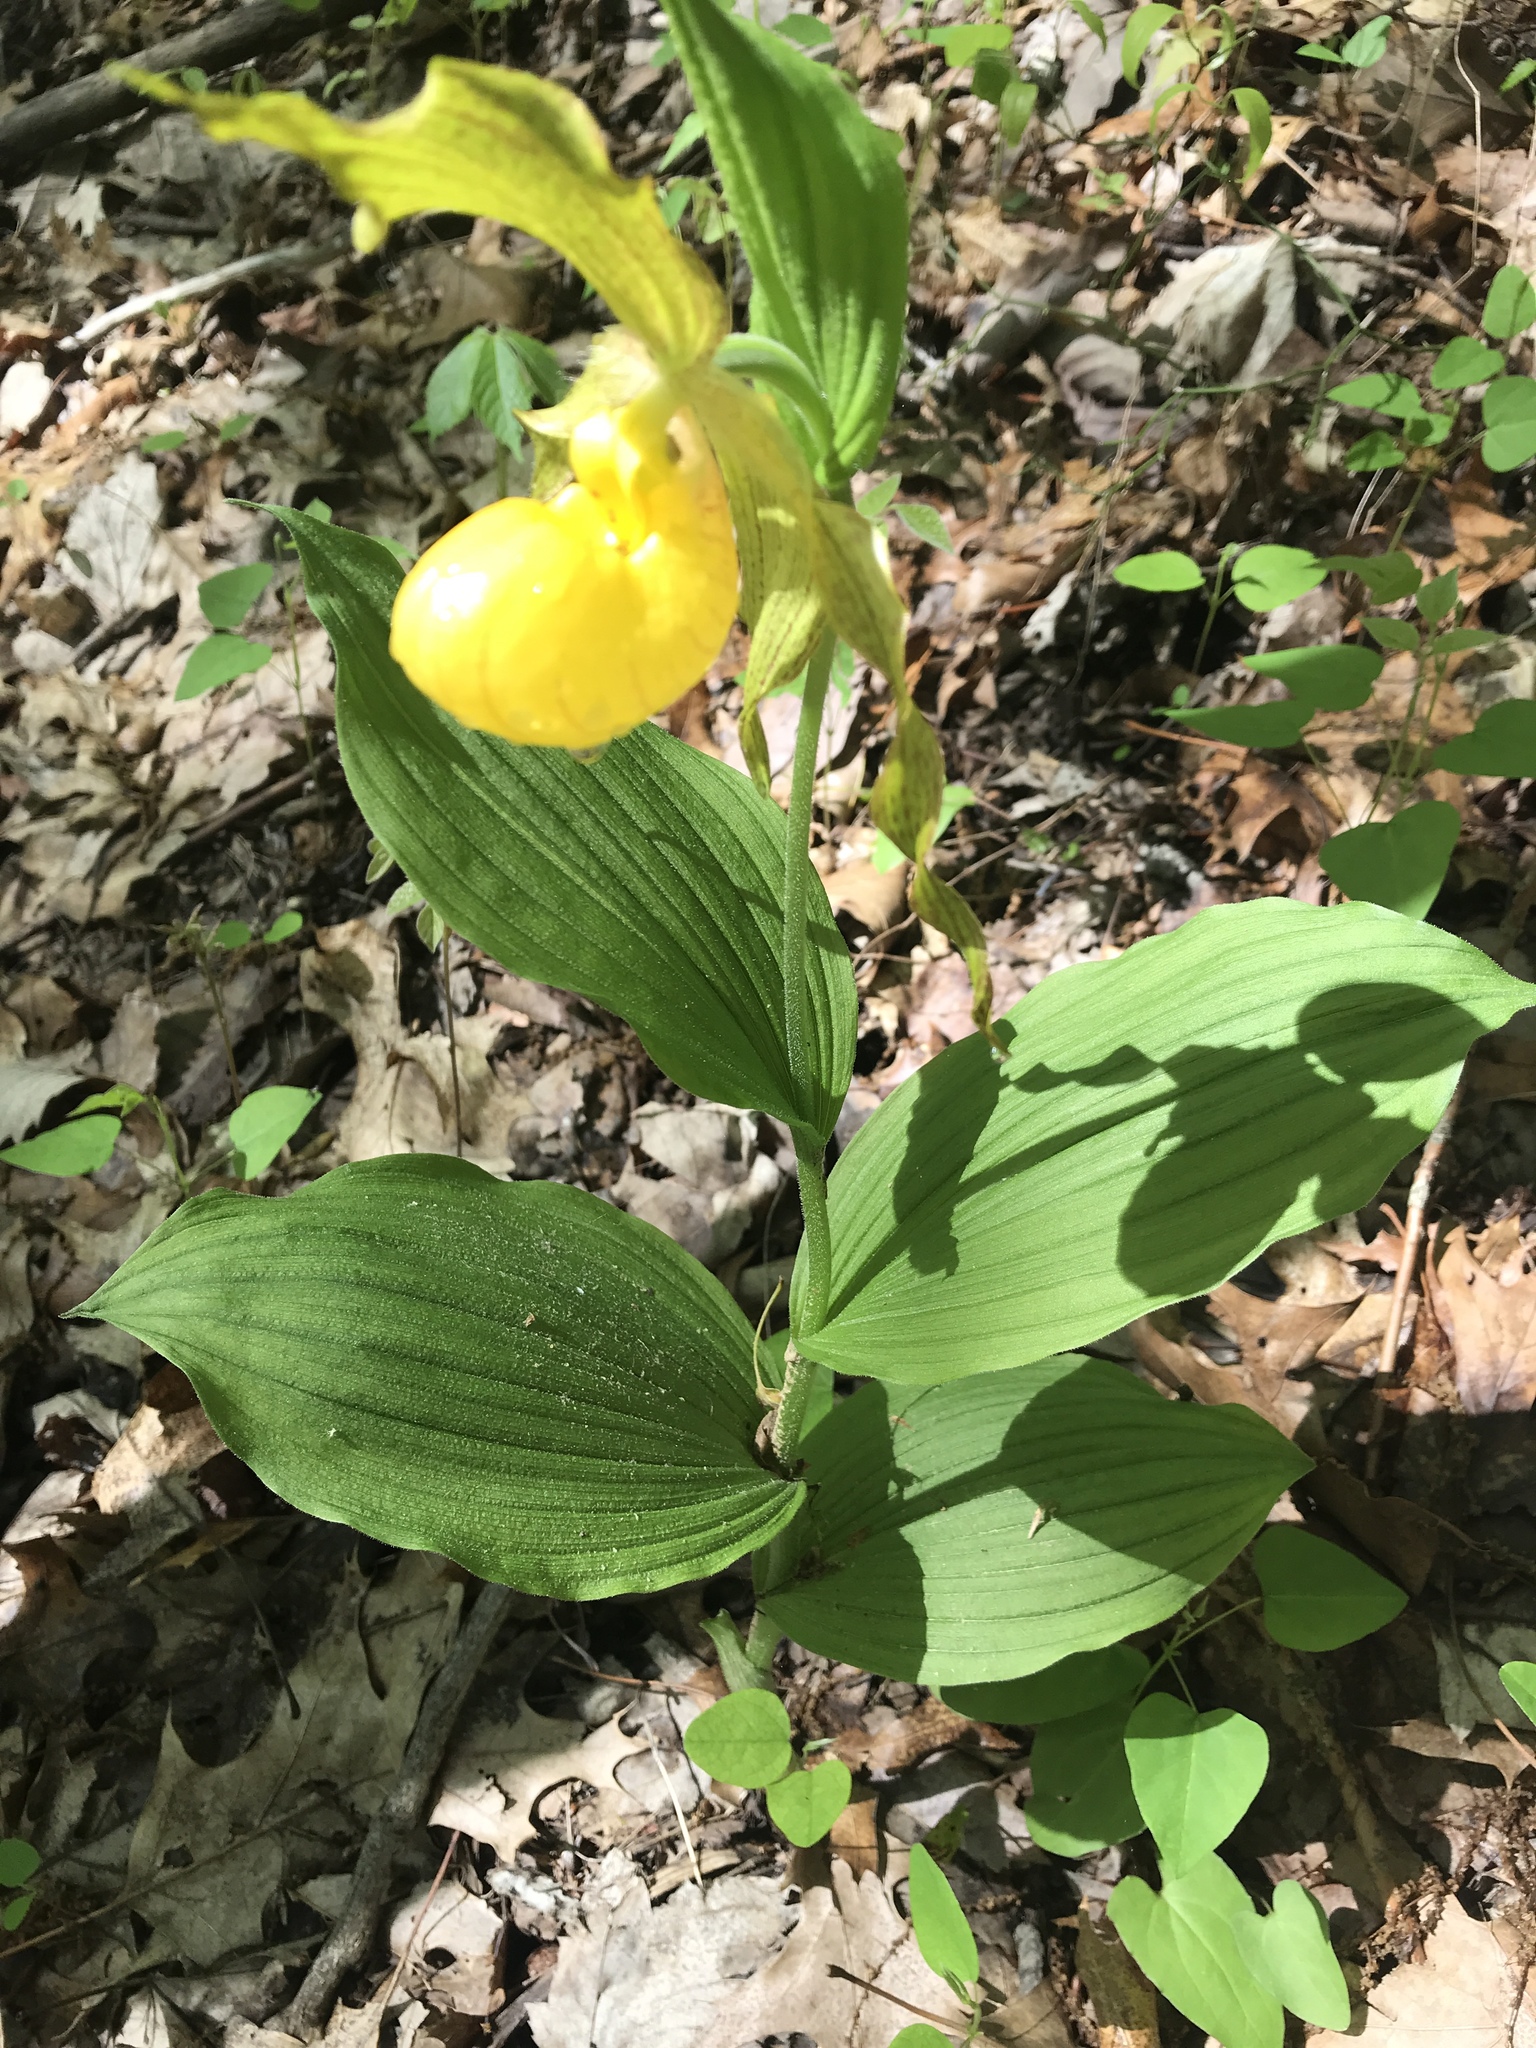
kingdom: Plantae
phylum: Tracheophyta
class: Liliopsida
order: Asparagales
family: Orchidaceae
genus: Cypripedium
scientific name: Cypripedium parviflorum
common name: American yellow lady's-slipper
